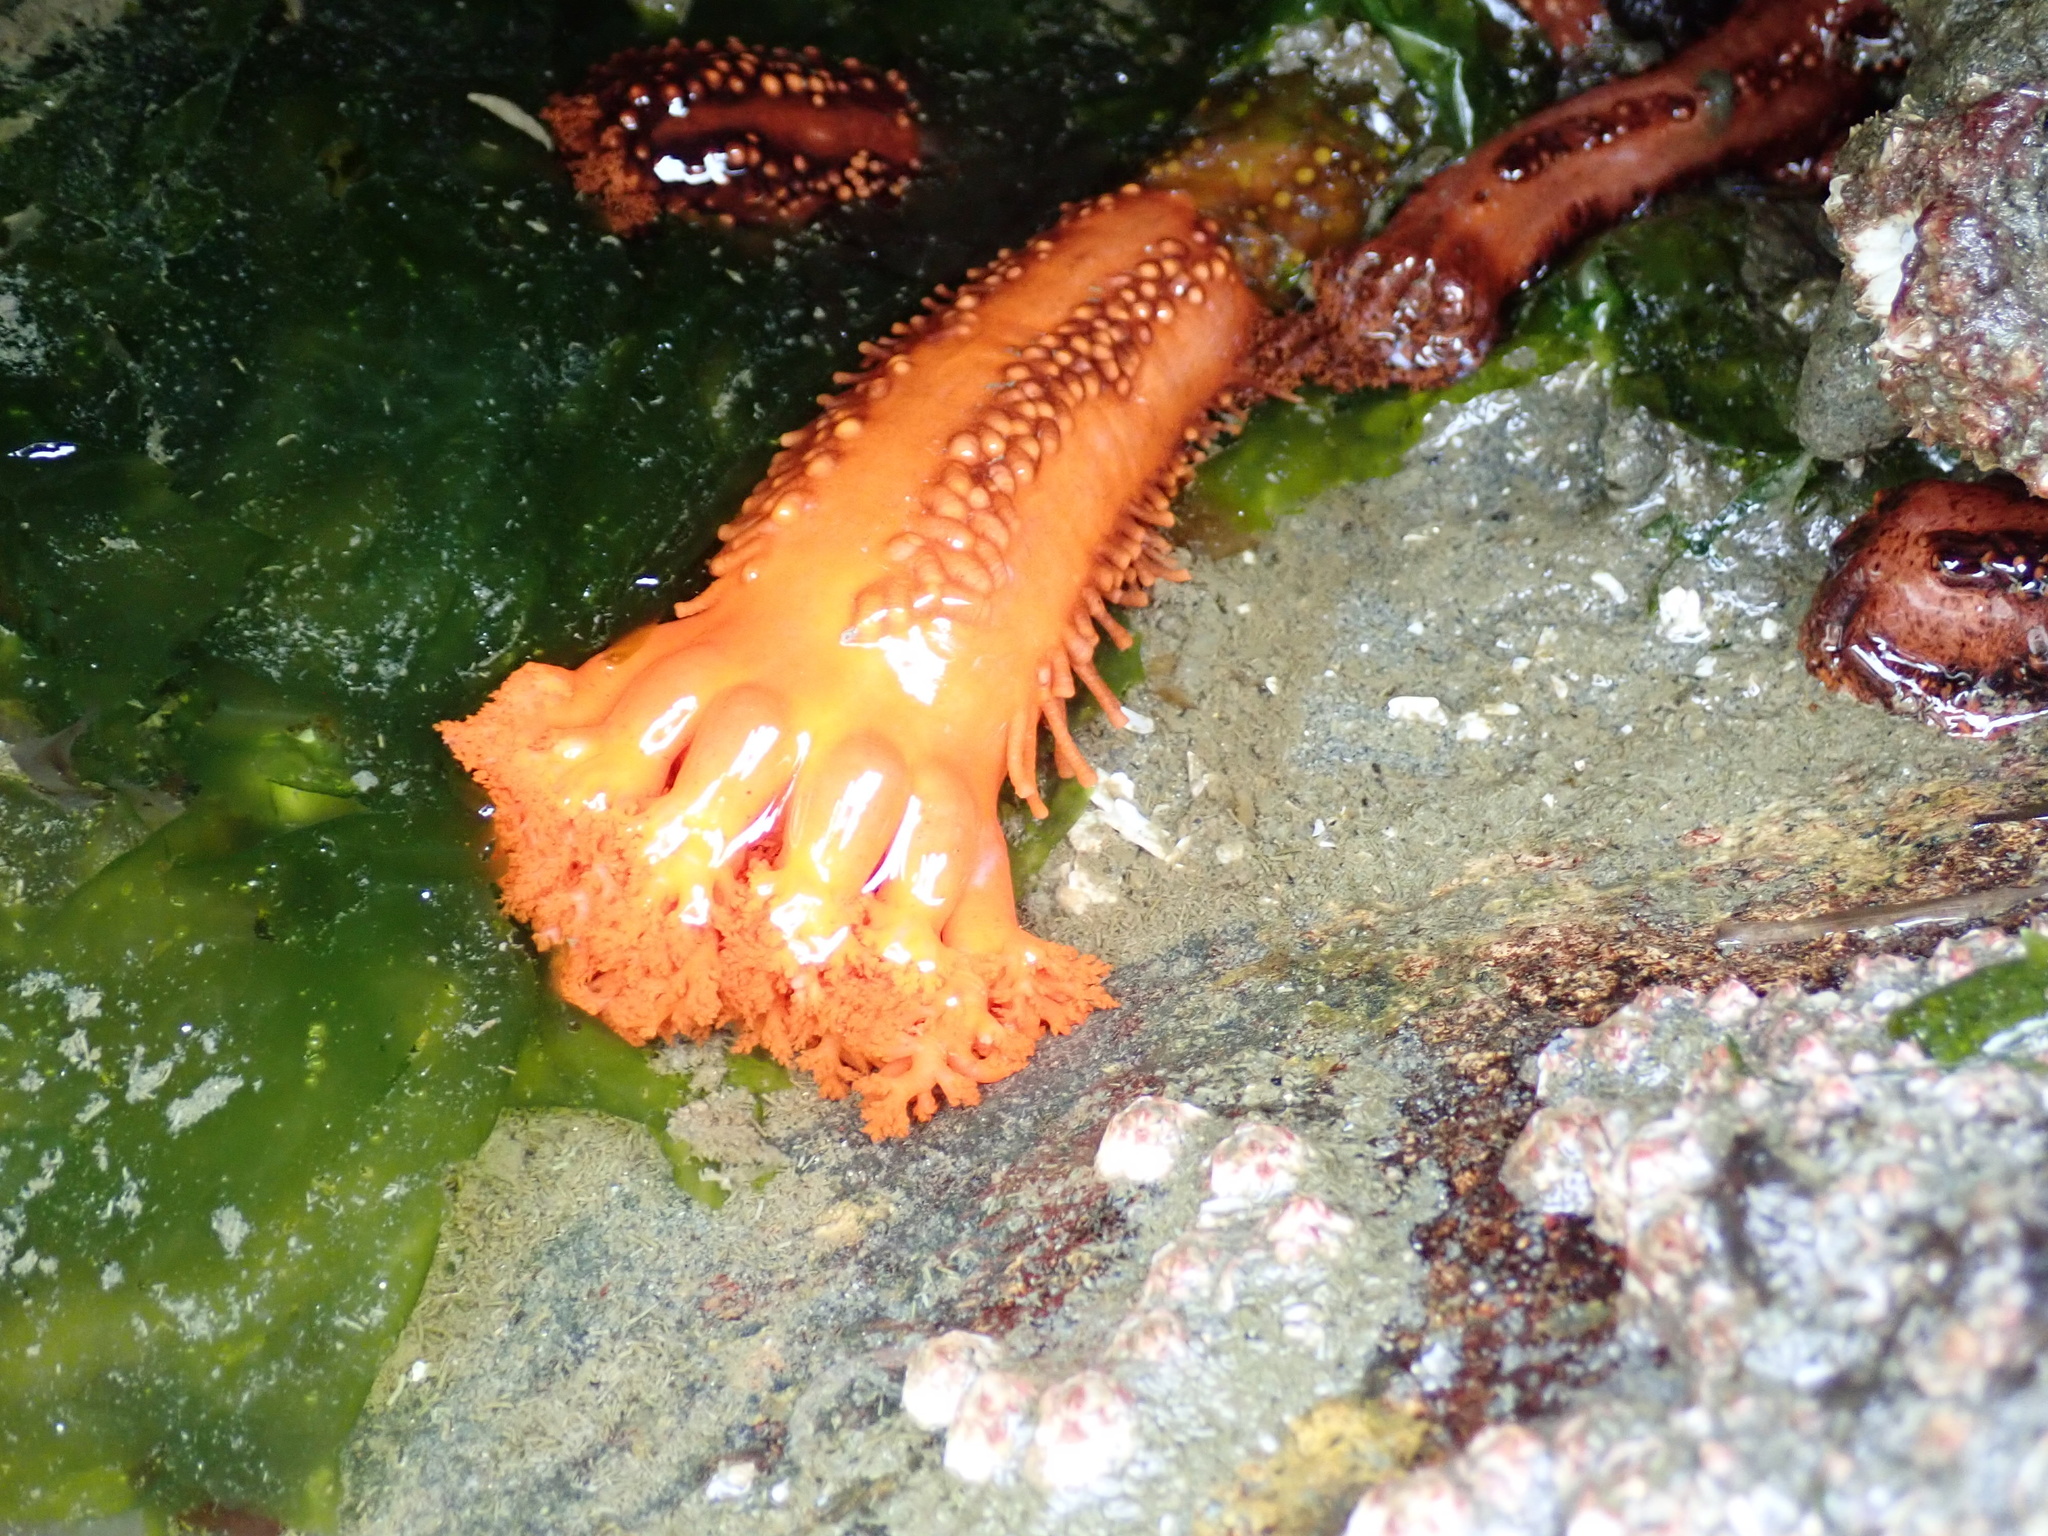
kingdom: Animalia
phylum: Echinodermata
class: Holothuroidea
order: Dendrochirotida
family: Cucumariidae
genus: Cucumaria
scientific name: Cucumaria miniata
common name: Orange sea cucumber
